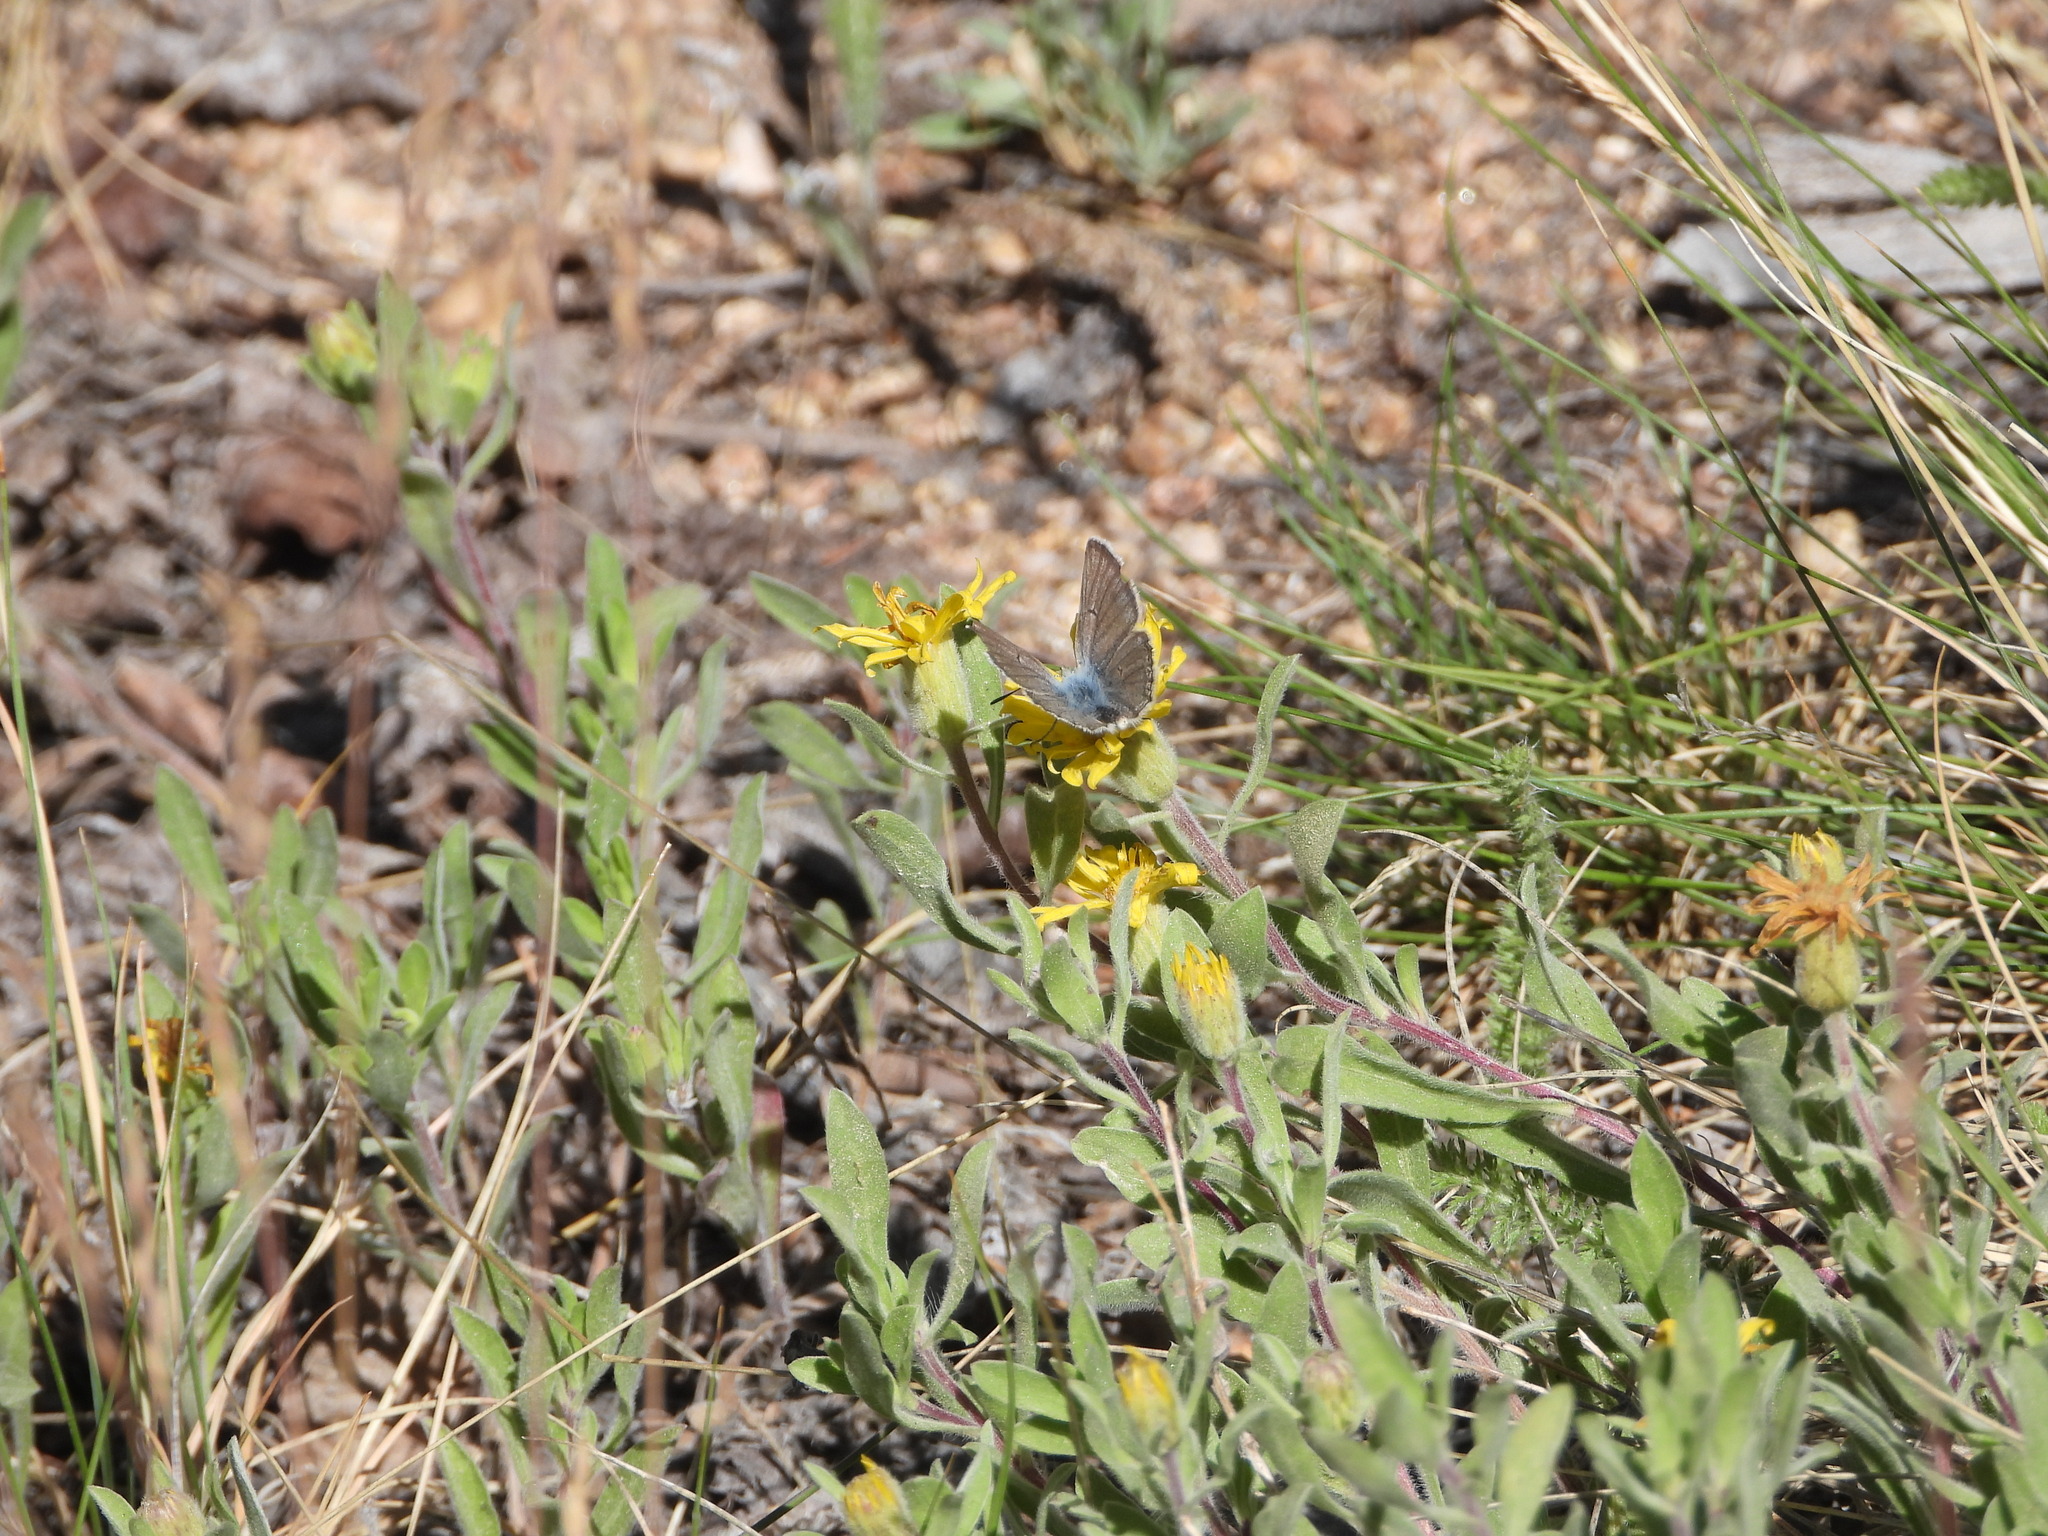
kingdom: Animalia
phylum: Arthropoda
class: Insecta
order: Lepidoptera
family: Lycaenidae
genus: Agriades
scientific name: Agriades glandon
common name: Glandon blue
